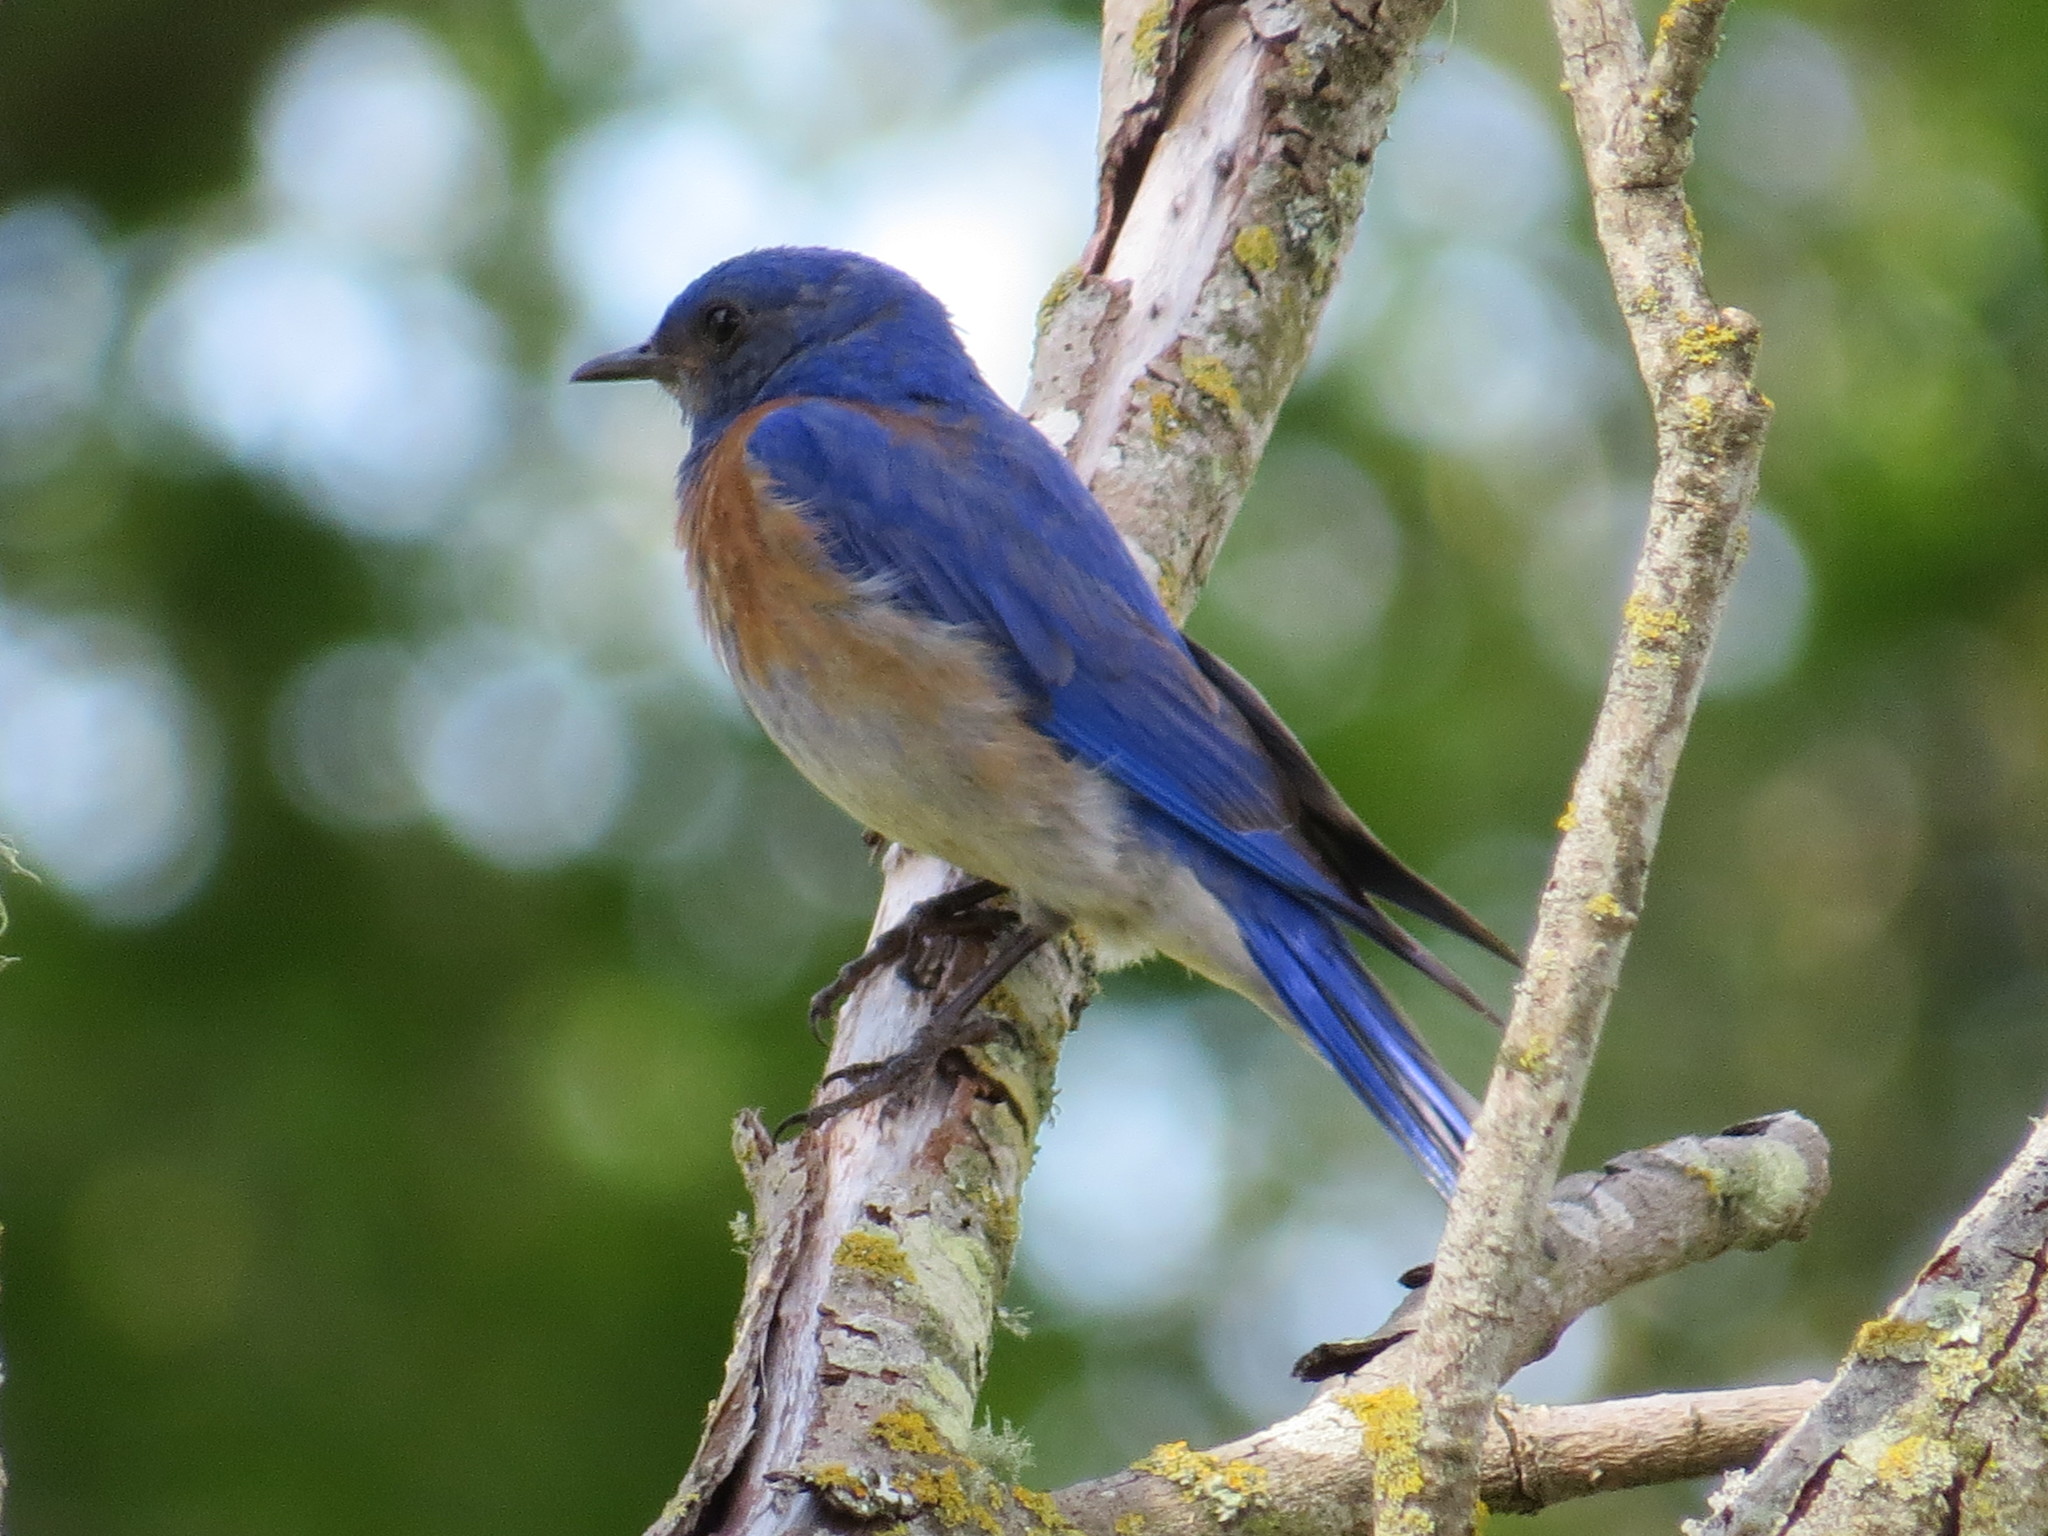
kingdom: Animalia
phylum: Chordata
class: Aves
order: Passeriformes
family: Turdidae
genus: Sialia
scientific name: Sialia mexicana
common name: Western bluebird
